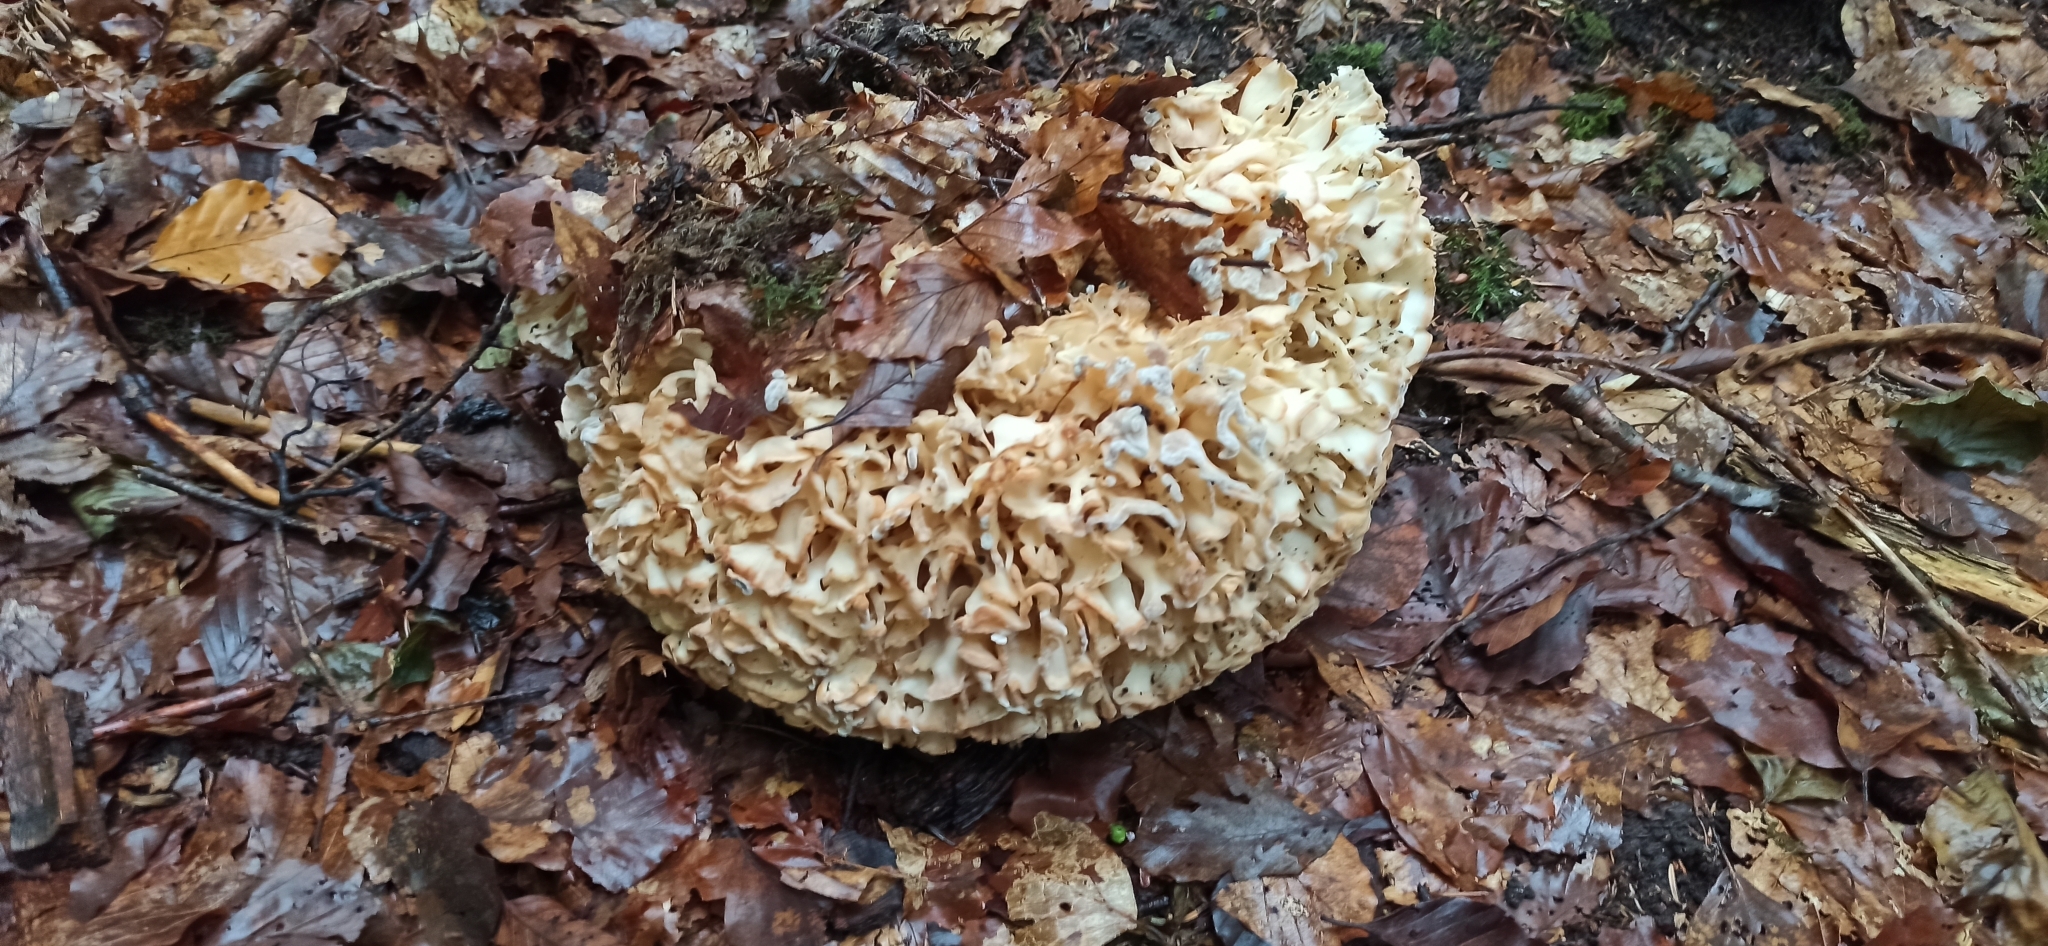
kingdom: Fungi
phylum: Basidiomycota
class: Agaricomycetes
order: Polyporales
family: Sparassidaceae
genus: Sparassis
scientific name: Sparassis crispa
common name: Brain fungus
